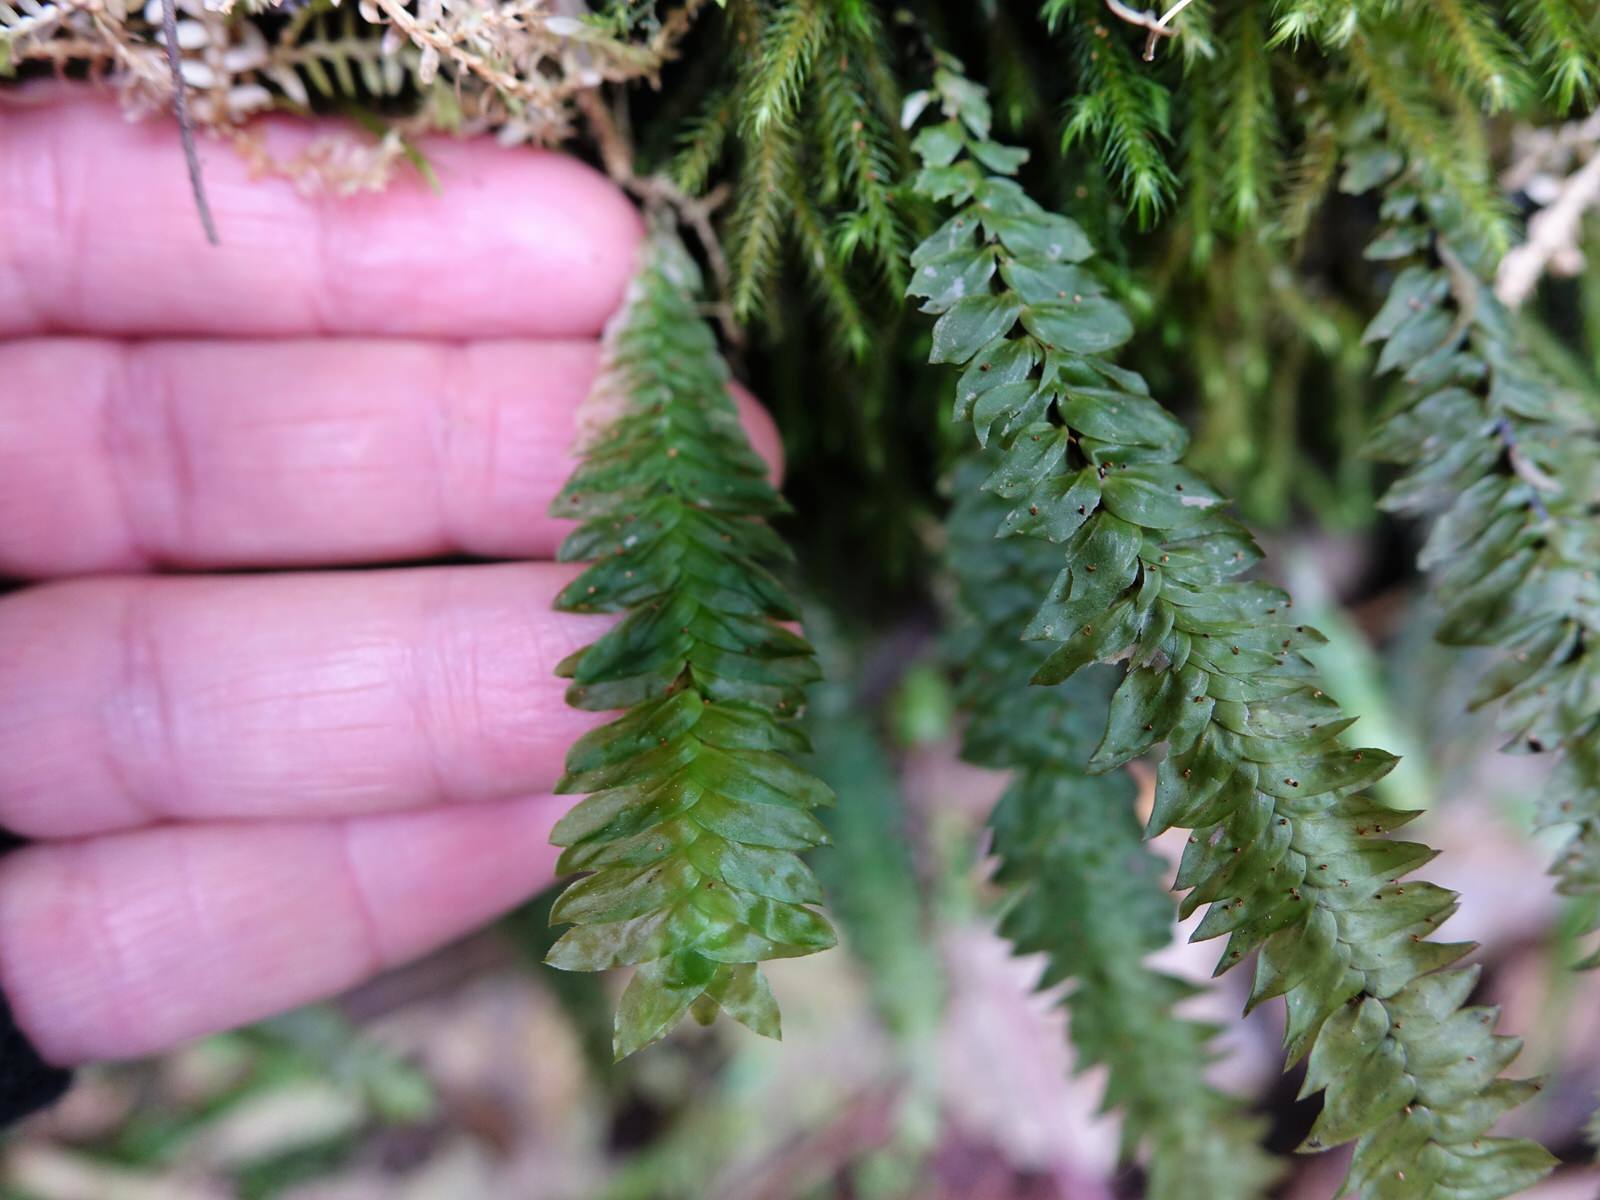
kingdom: Plantae
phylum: Bryophyta
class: Bryopsida
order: Hypopterygiales
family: Hypopterygiaceae
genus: Cyathophorum
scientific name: Cyathophorum bulbosum
